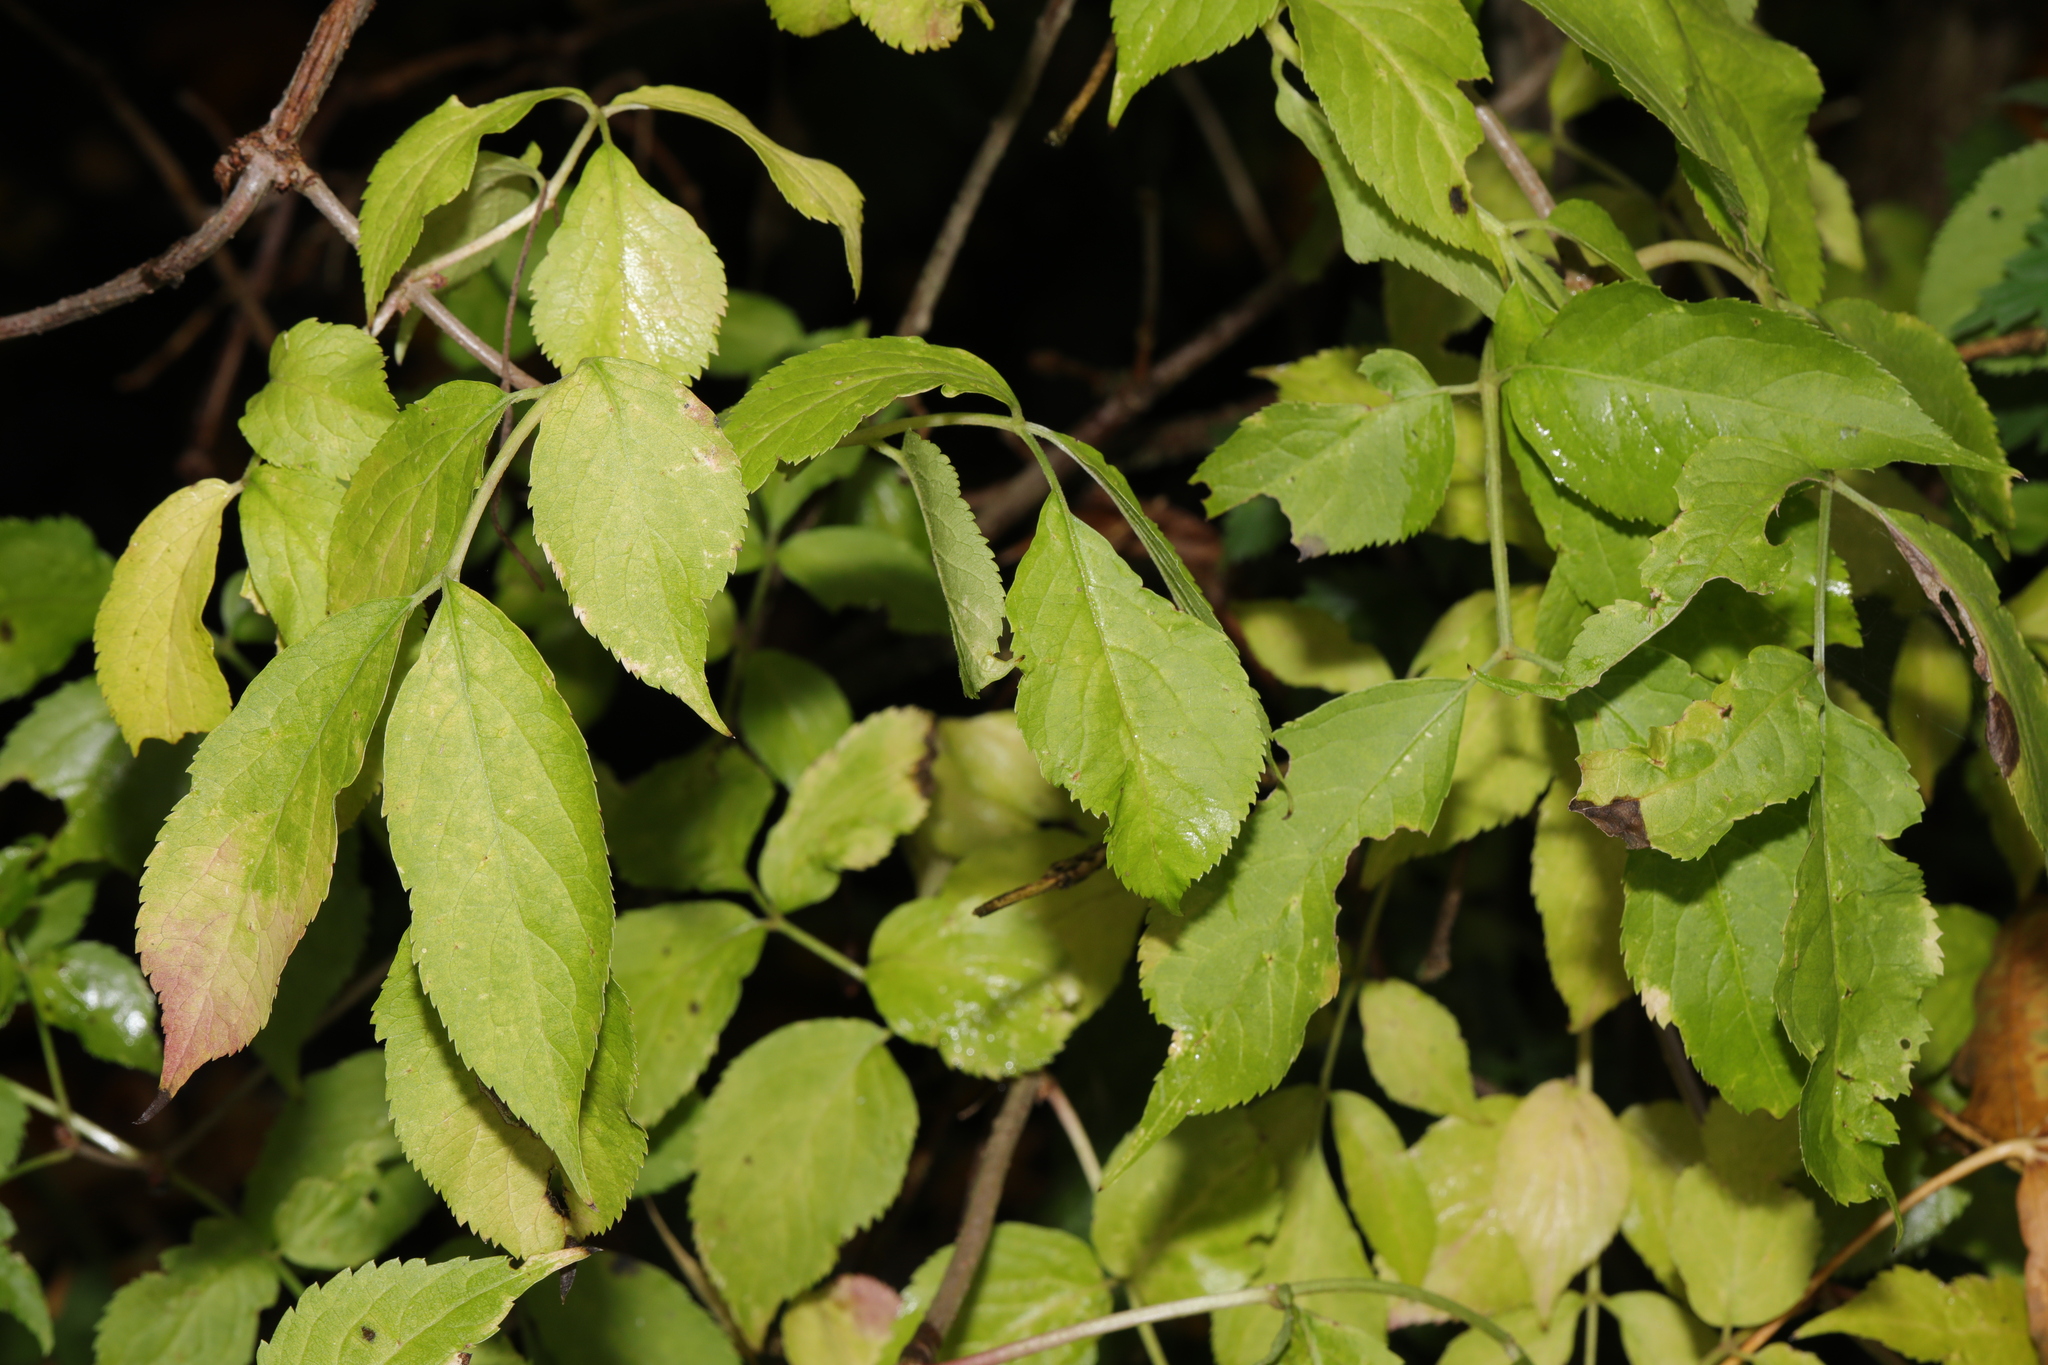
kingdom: Plantae
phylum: Tracheophyta
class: Magnoliopsida
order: Dipsacales
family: Viburnaceae
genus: Sambucus
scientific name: Sambucus nigra
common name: Elder
